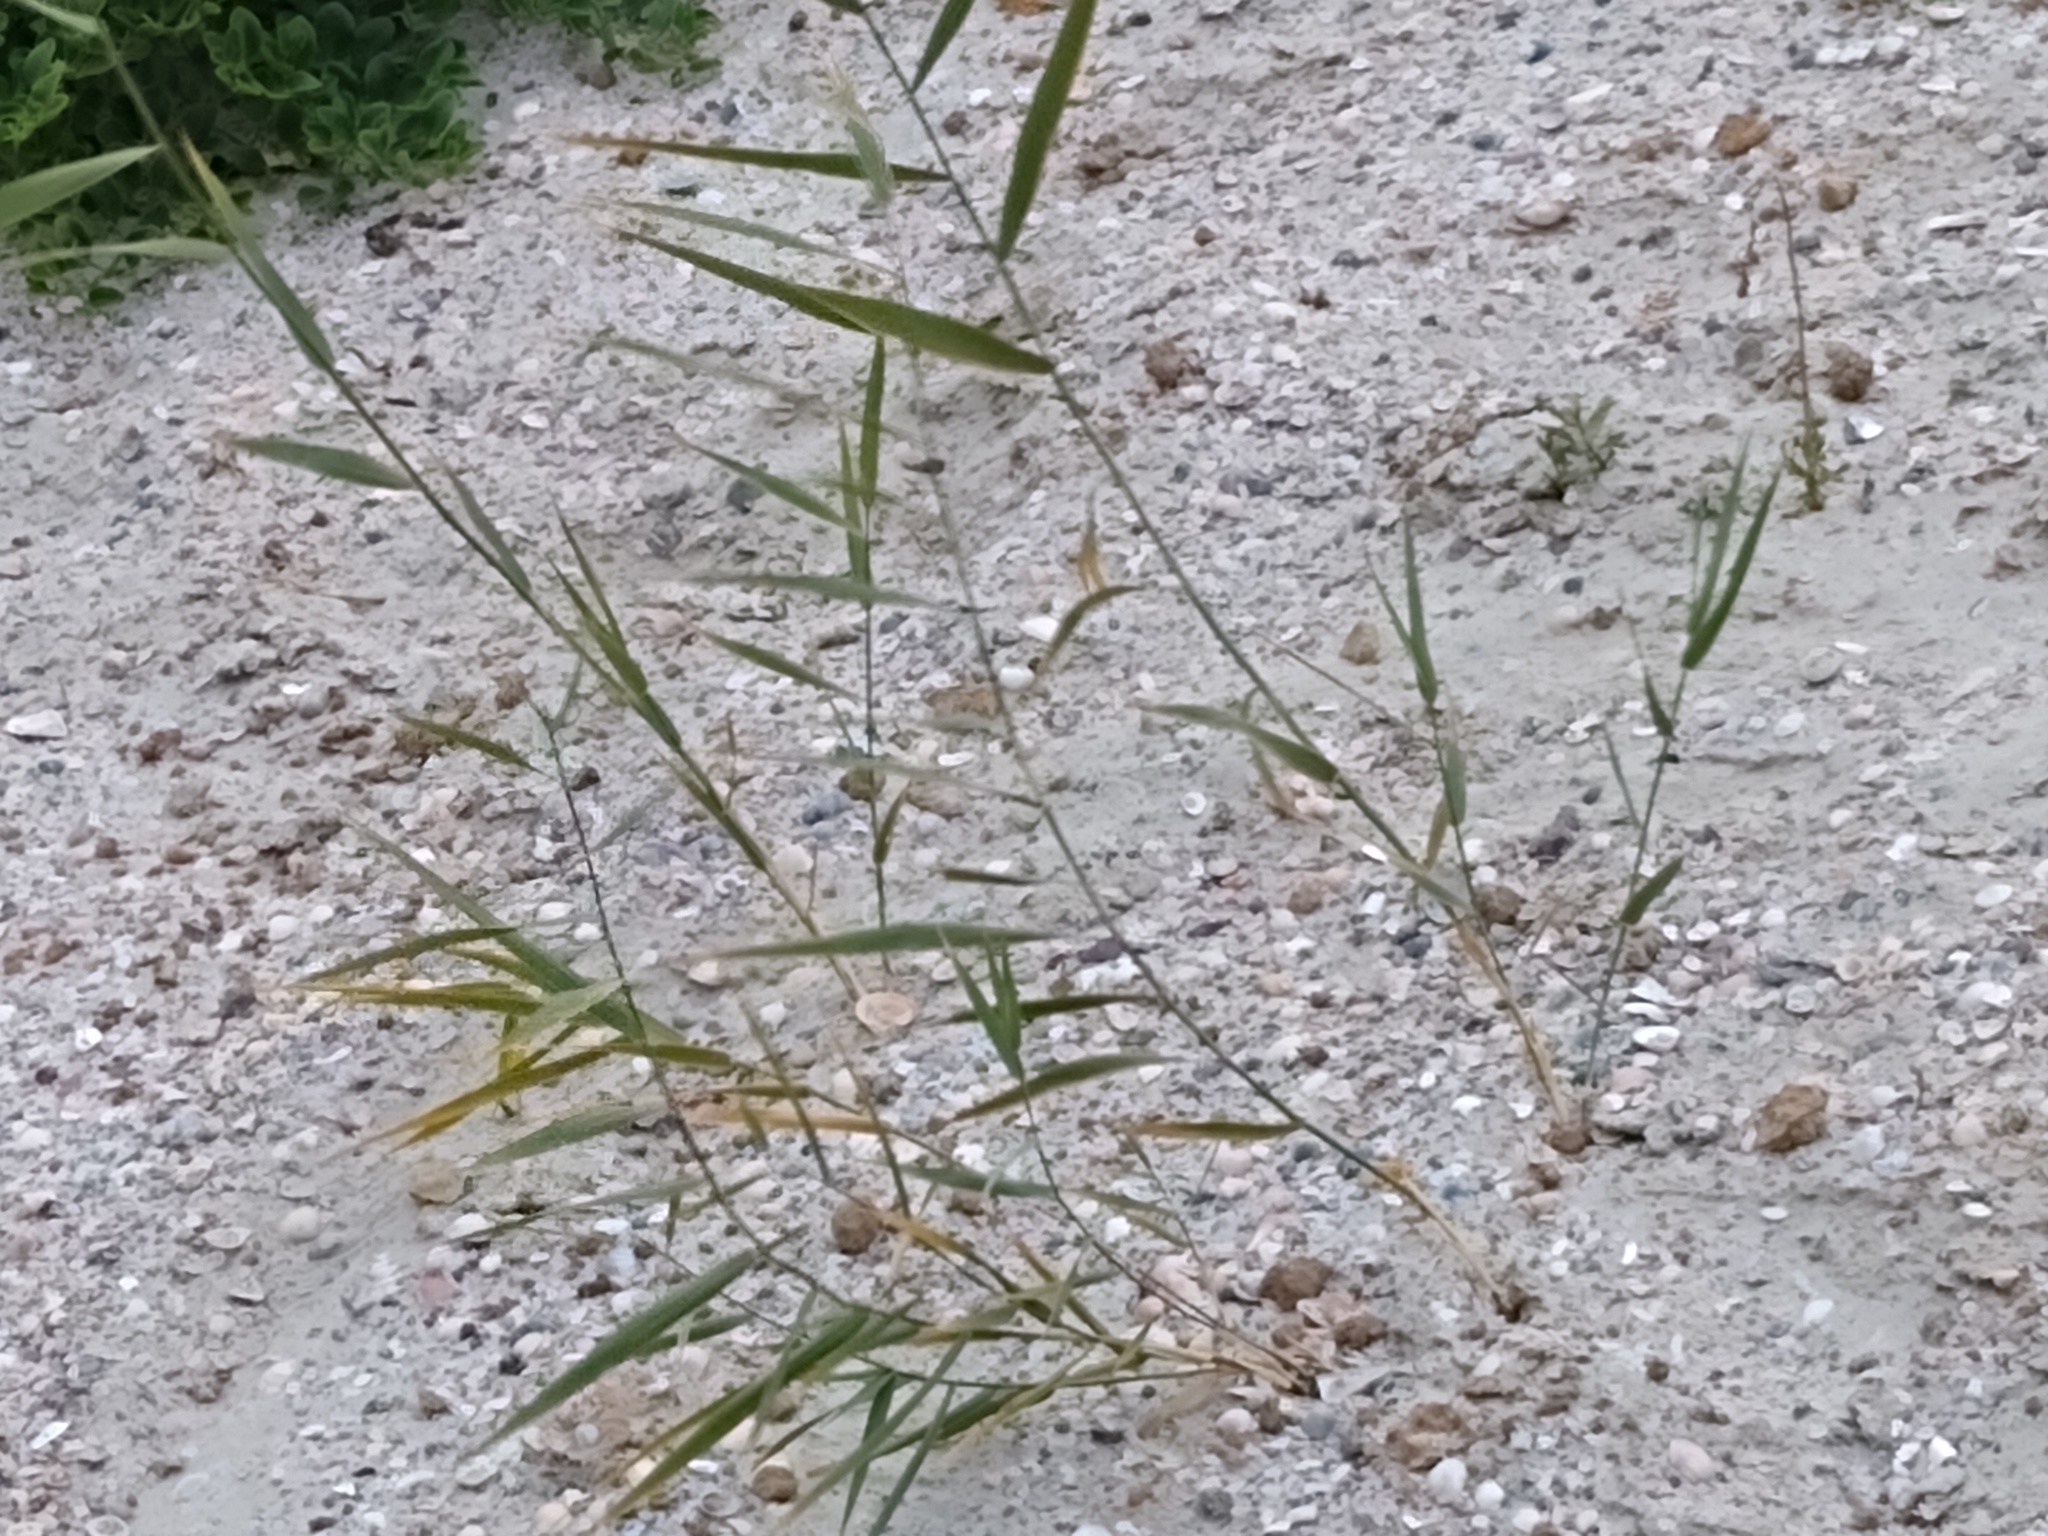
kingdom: Plantae
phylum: Tracheophyta
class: Liliopsida
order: Poales
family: Poaceae
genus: Phragmites
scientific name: Phragmites australis
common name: Common reed
